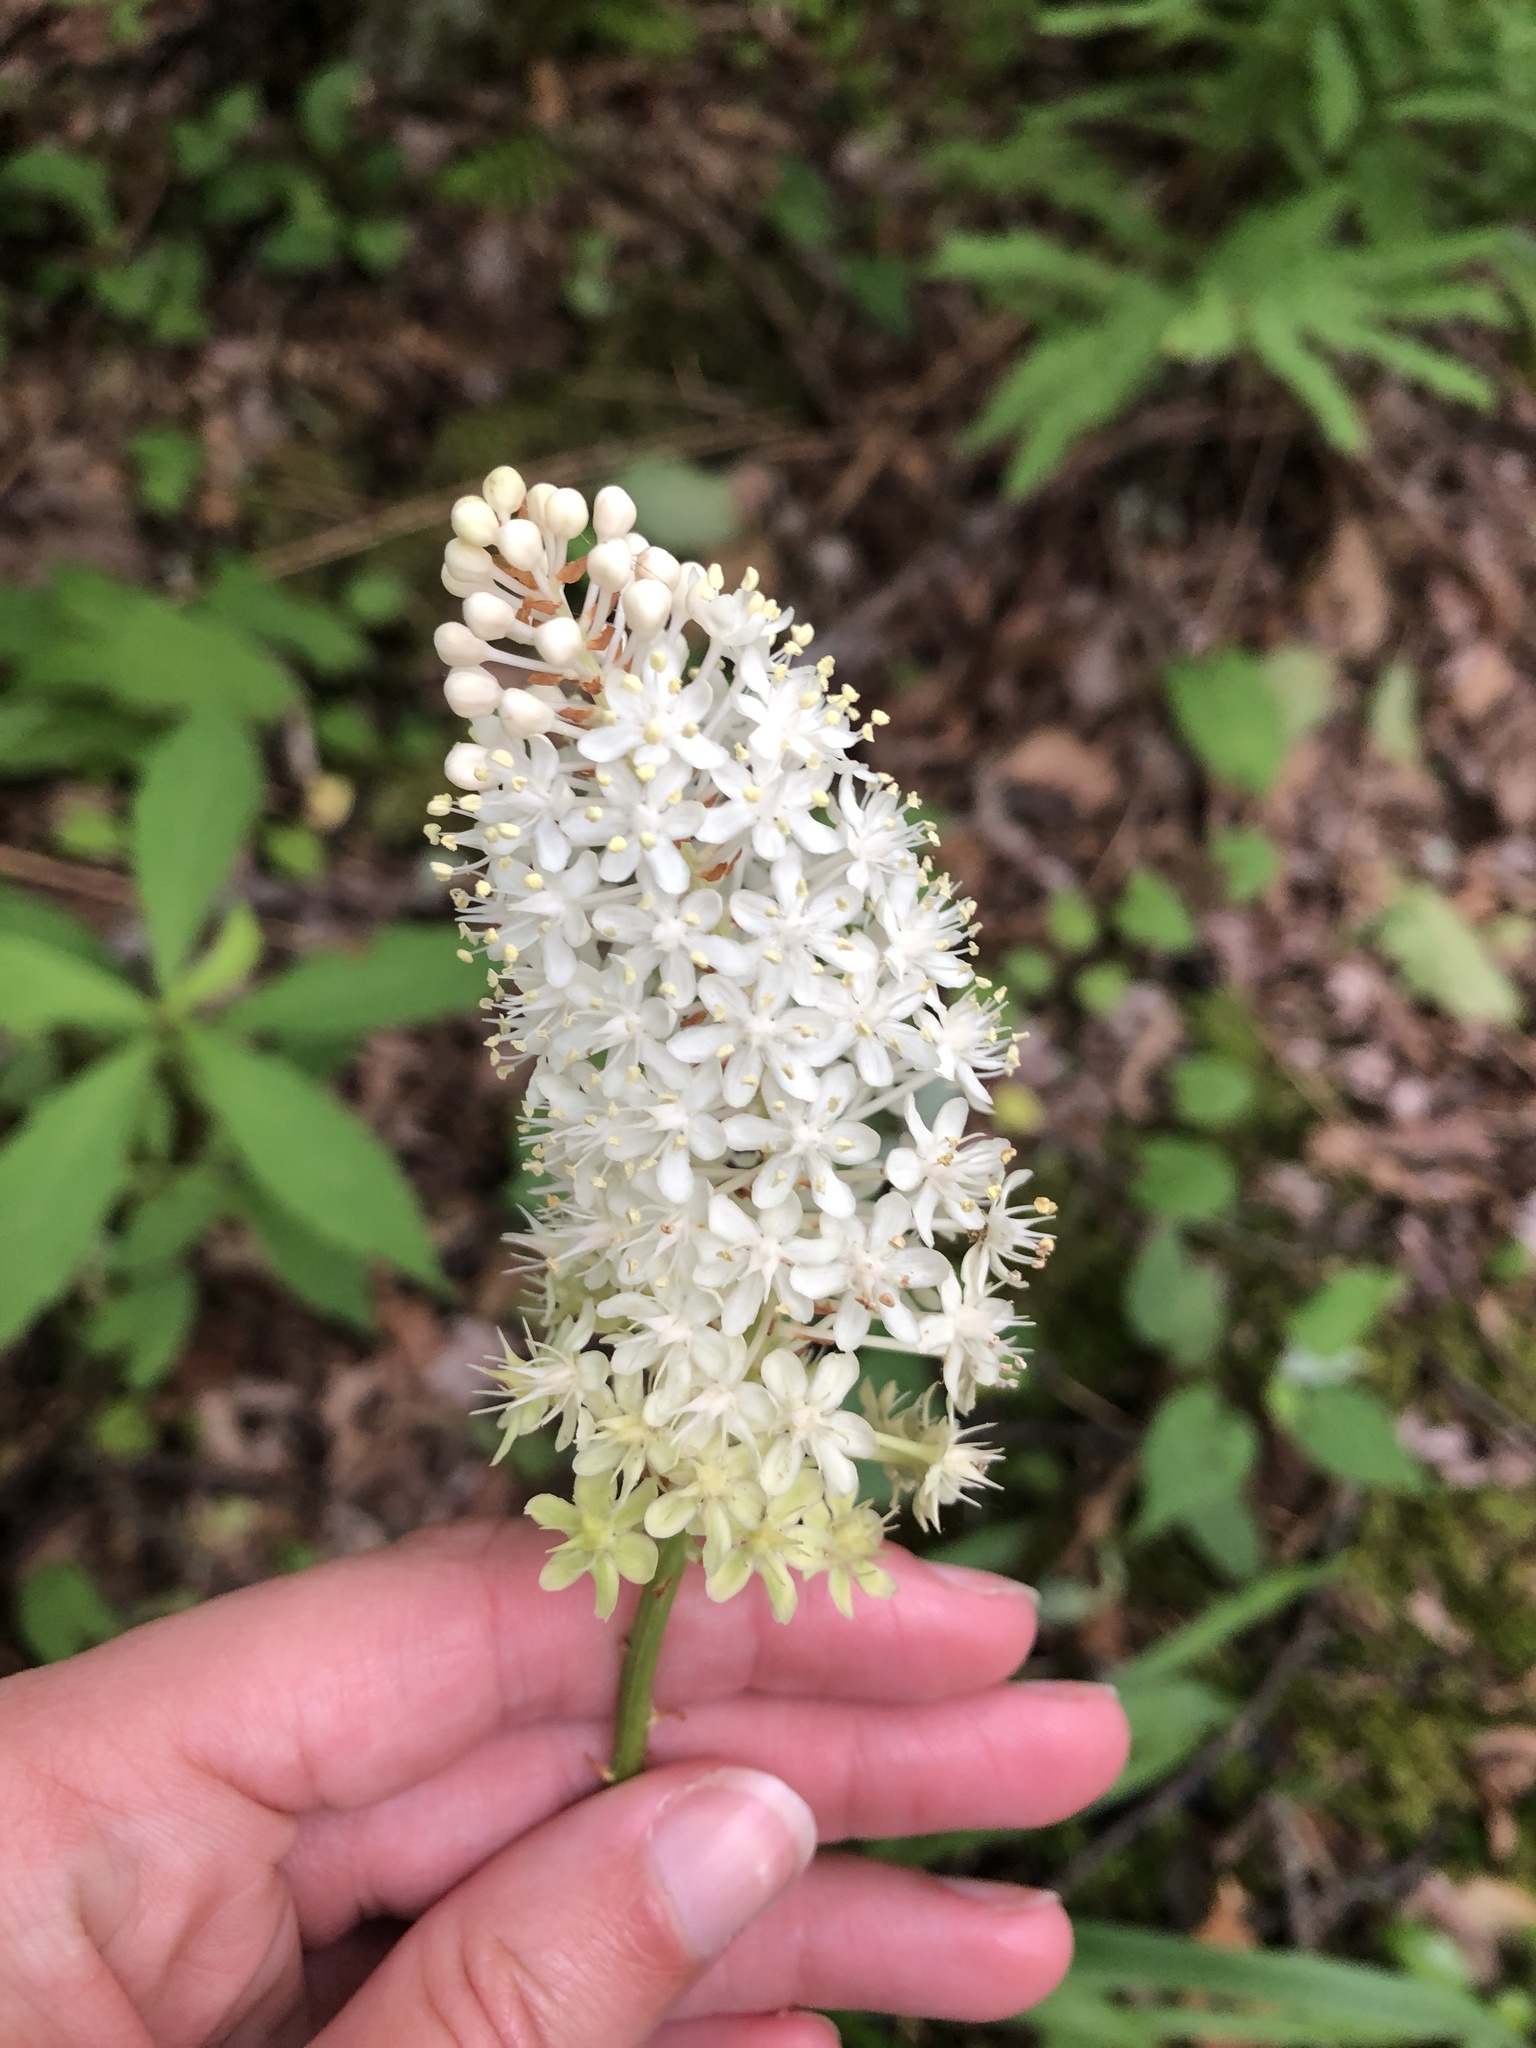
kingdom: Plantae
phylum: Tracheophyta
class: Liliopsida
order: Liliales
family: Melanthiaceae
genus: Amianthium
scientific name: Amianthium muscitoxicum
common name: Fly-poison
